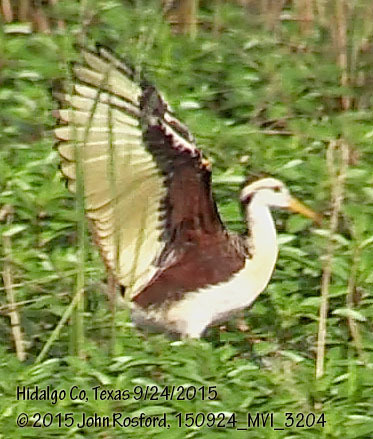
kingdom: Animalia
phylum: Chordata
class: Aves
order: Charadriiformes
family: Jacanidae
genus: Jacana
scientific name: Jacana spinosa
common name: Northern jacana
